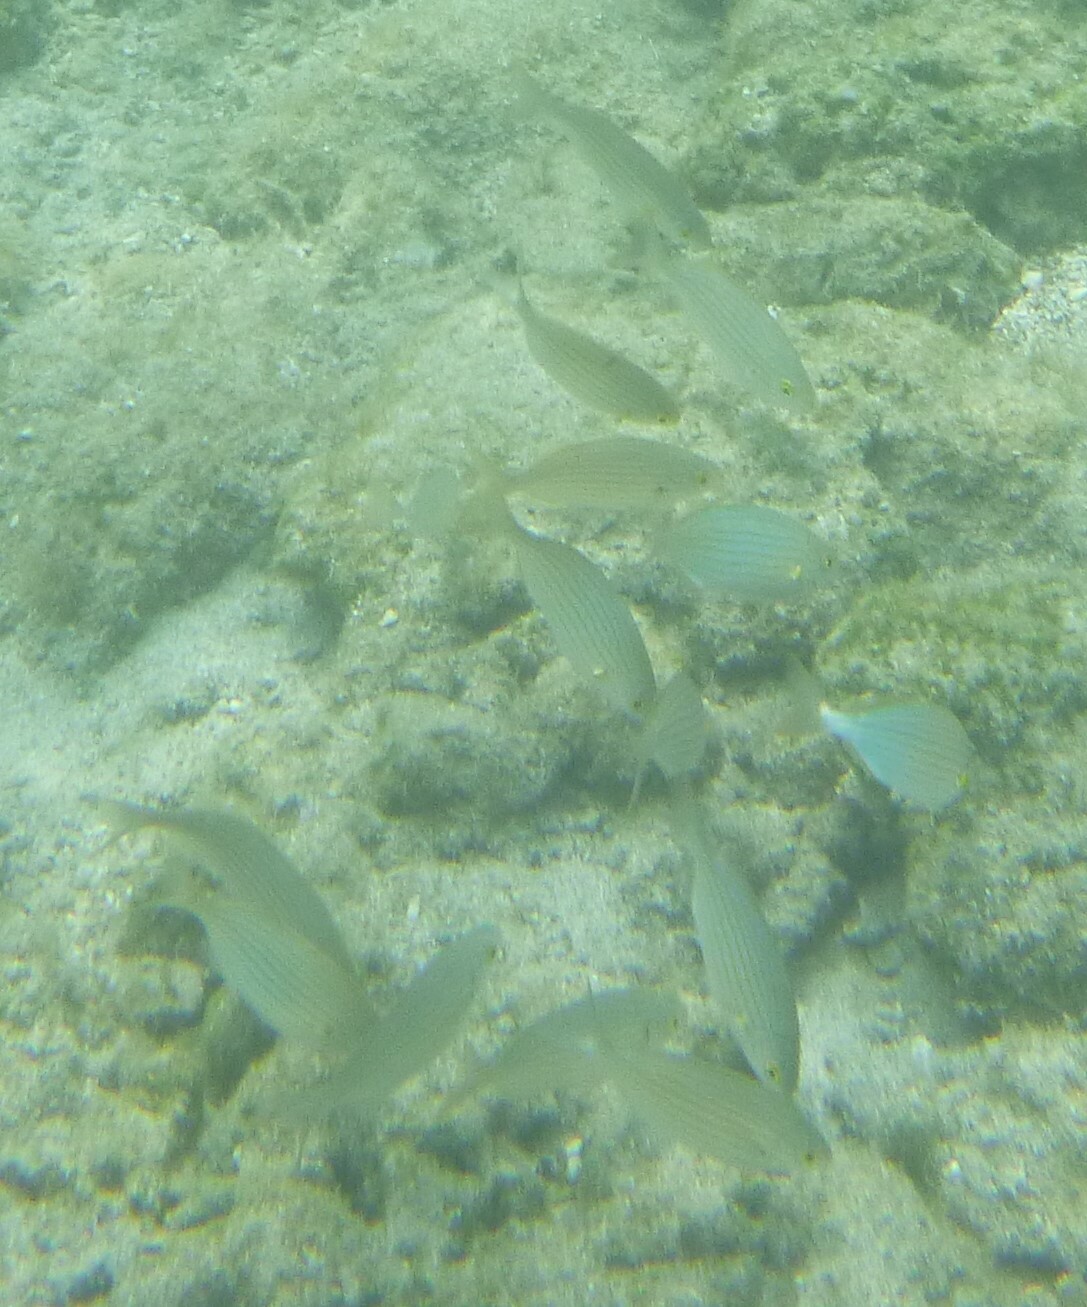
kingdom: Animalia
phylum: Chordata
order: Perciformes
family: Sparidae
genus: Sarpa
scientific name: Sarpa salpa
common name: Salema
